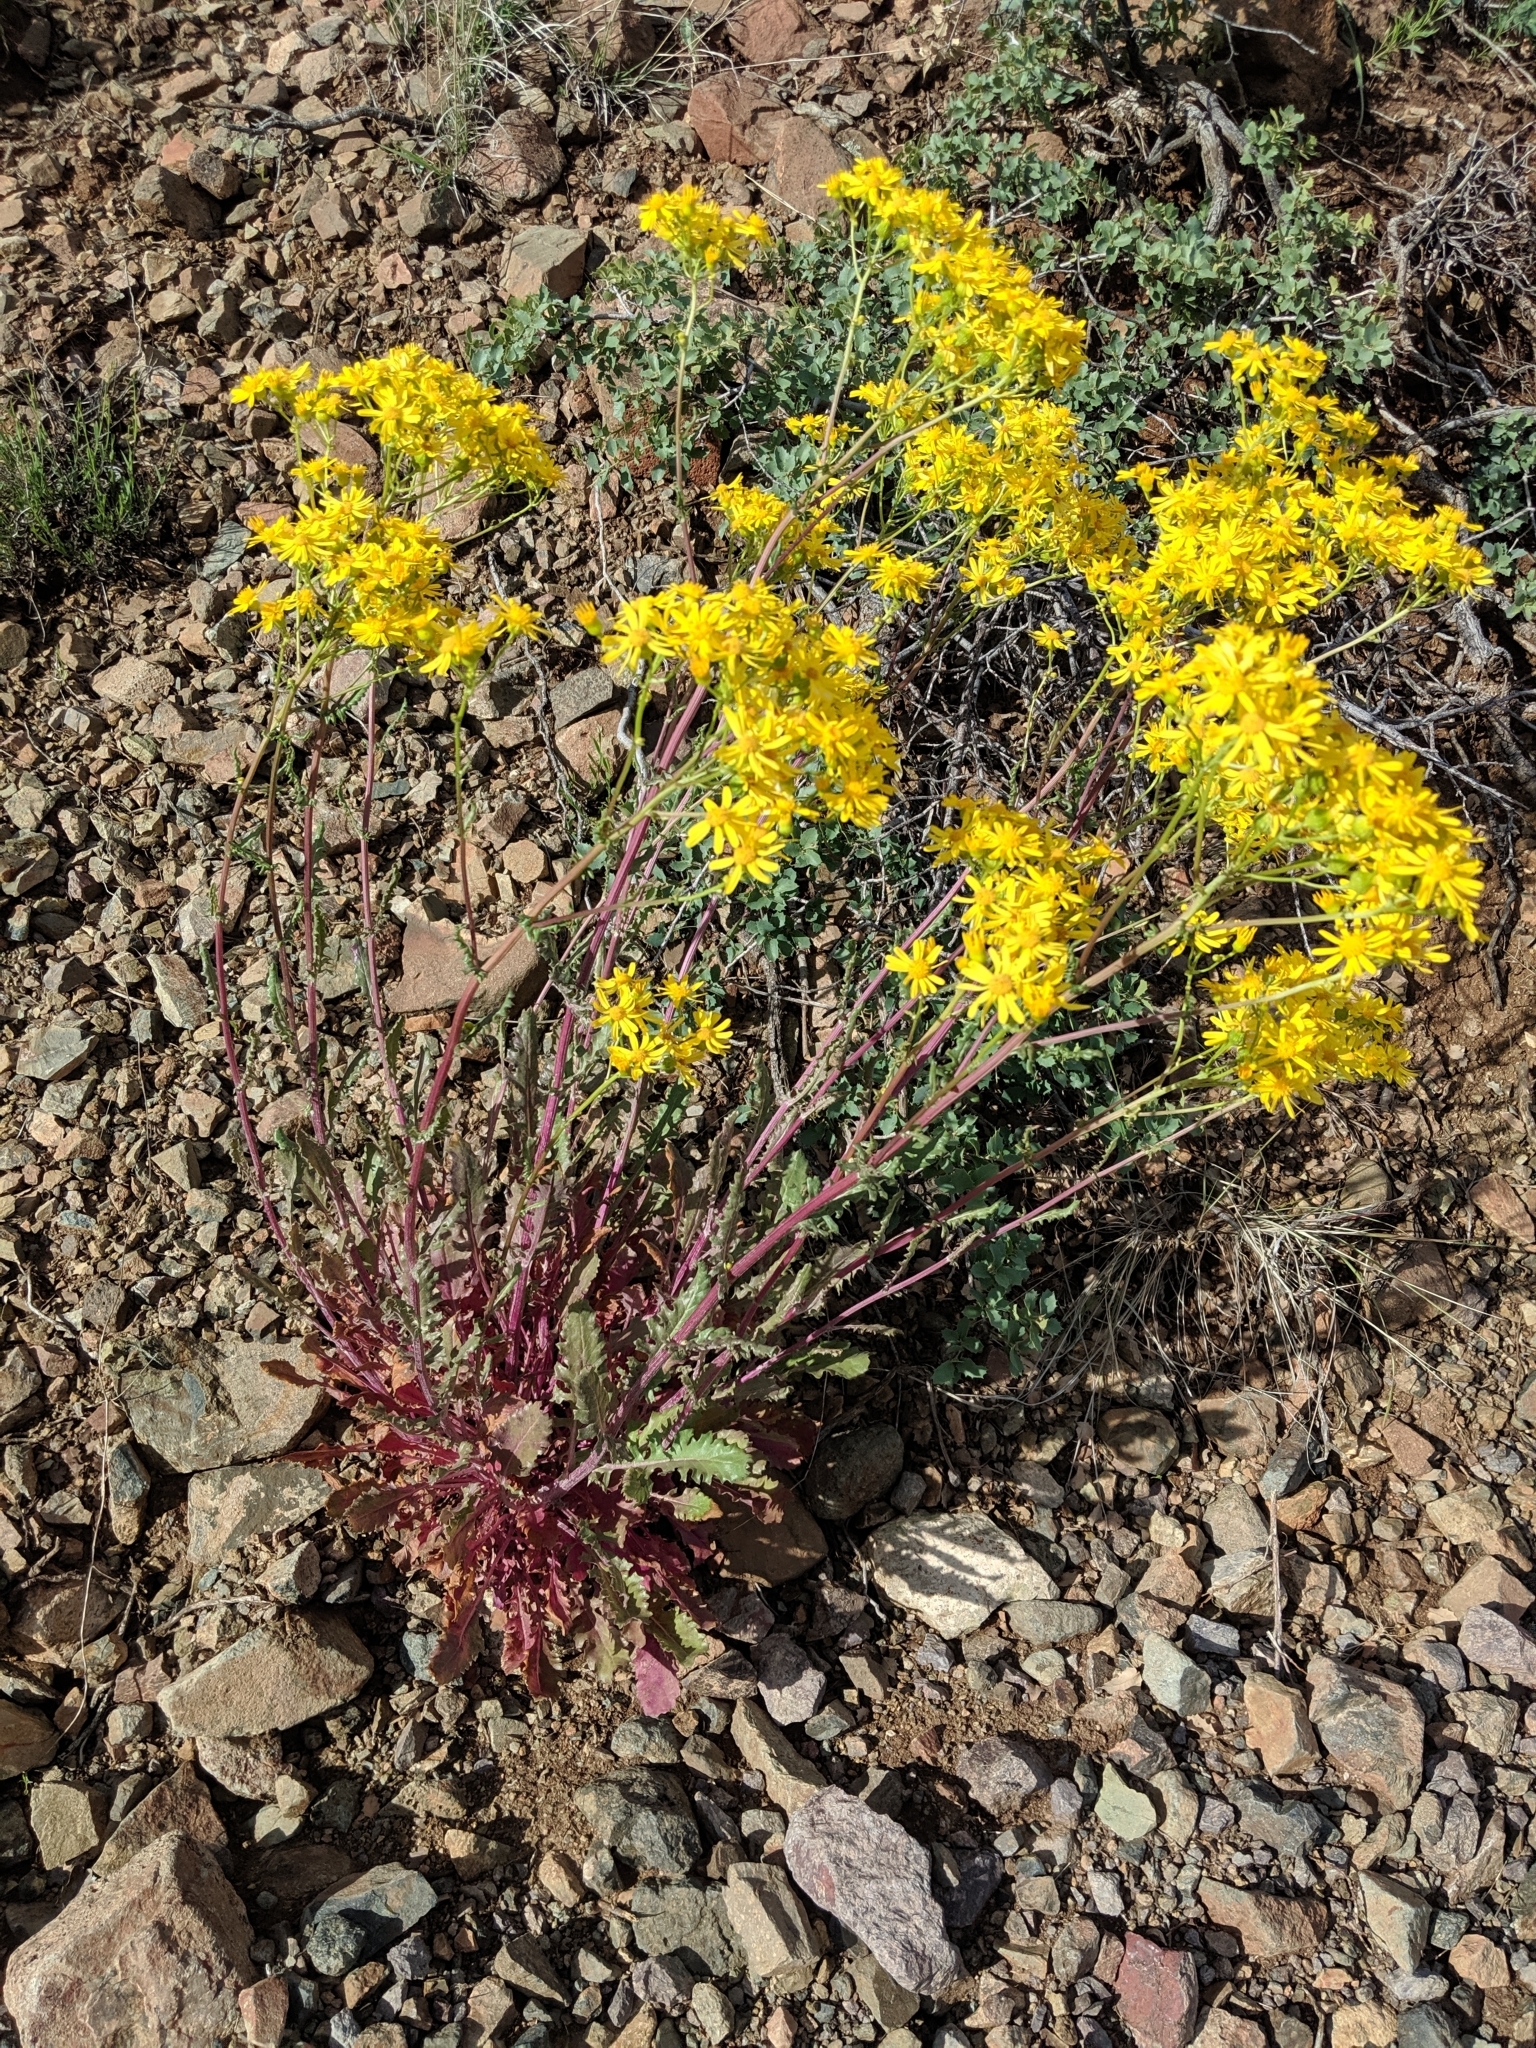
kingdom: Plantae
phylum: Tracheophyta
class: Magnoliopsida
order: Asterales
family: Asteraceae
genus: Packera
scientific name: Packera quercetorum
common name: Oak creek ragwort
